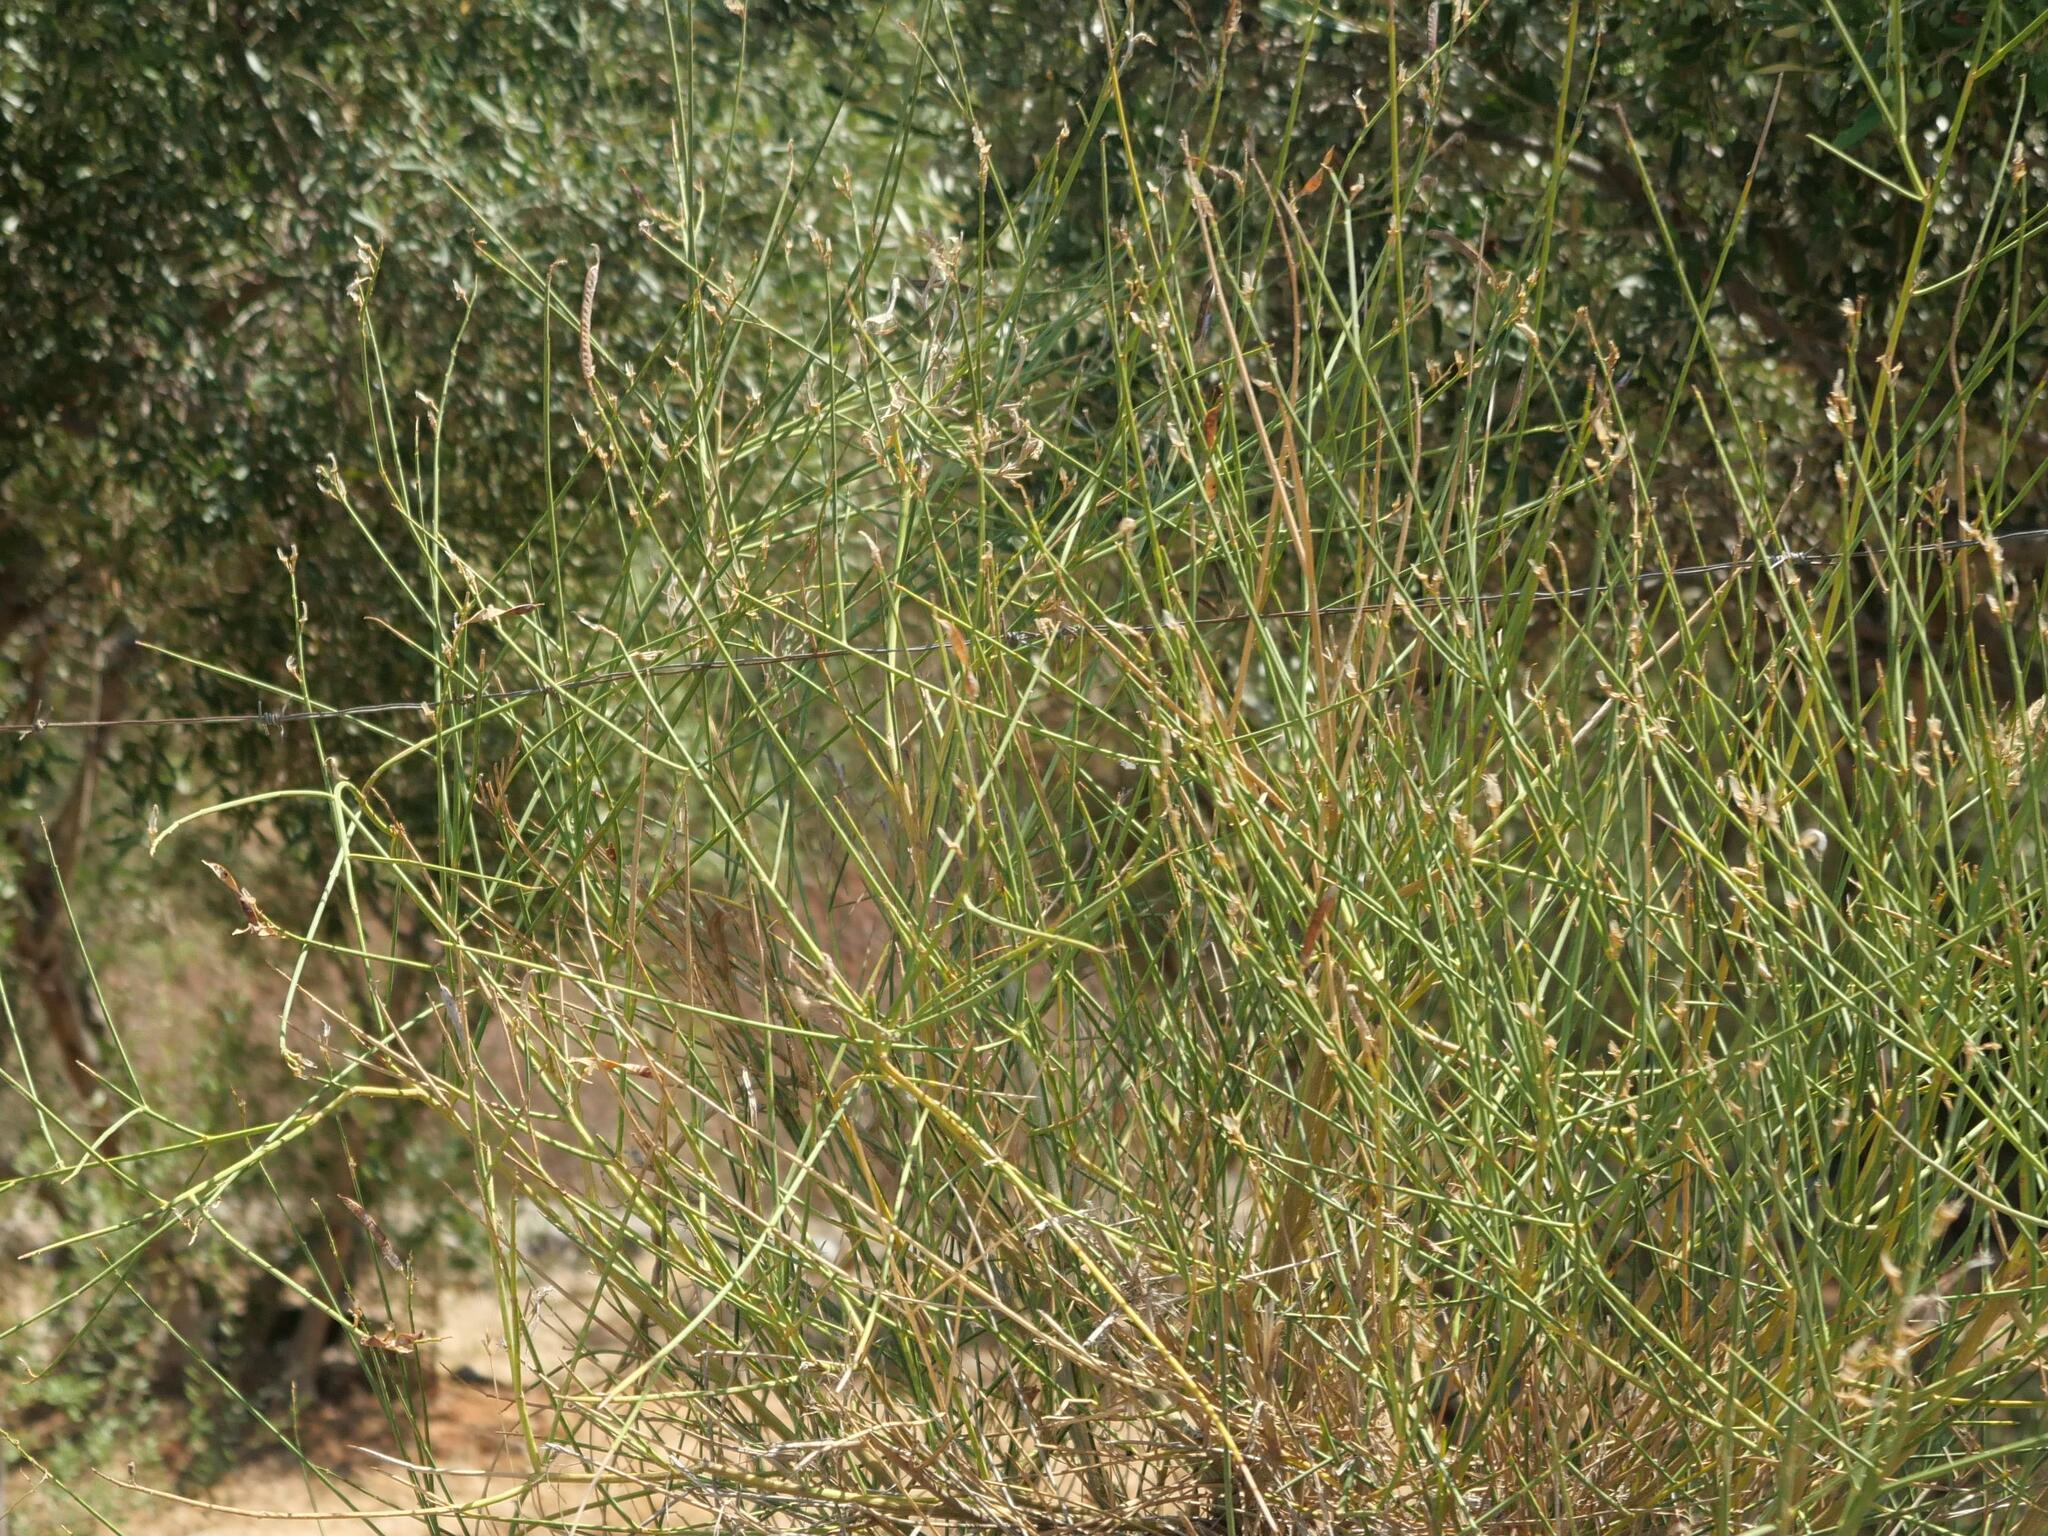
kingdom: Plantae
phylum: Tracheophyta
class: Magnoliopsida
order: Fabales
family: Fabaceae
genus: Spartium
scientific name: Spartium junceum
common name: Spanish broom
